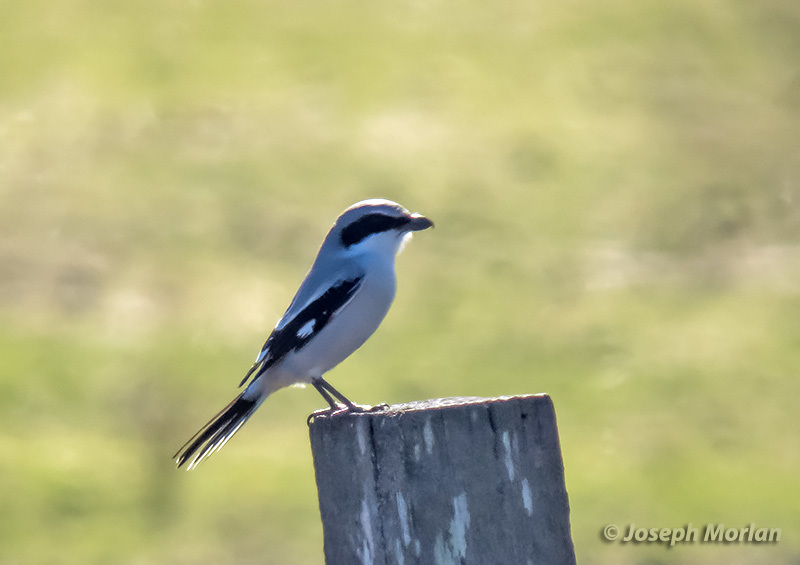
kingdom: Animalia
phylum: Chordata
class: Aves
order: Passeriformes
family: Laniidae
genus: Lanius
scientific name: Lanius ludovicianus
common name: Loggerhead shrike
